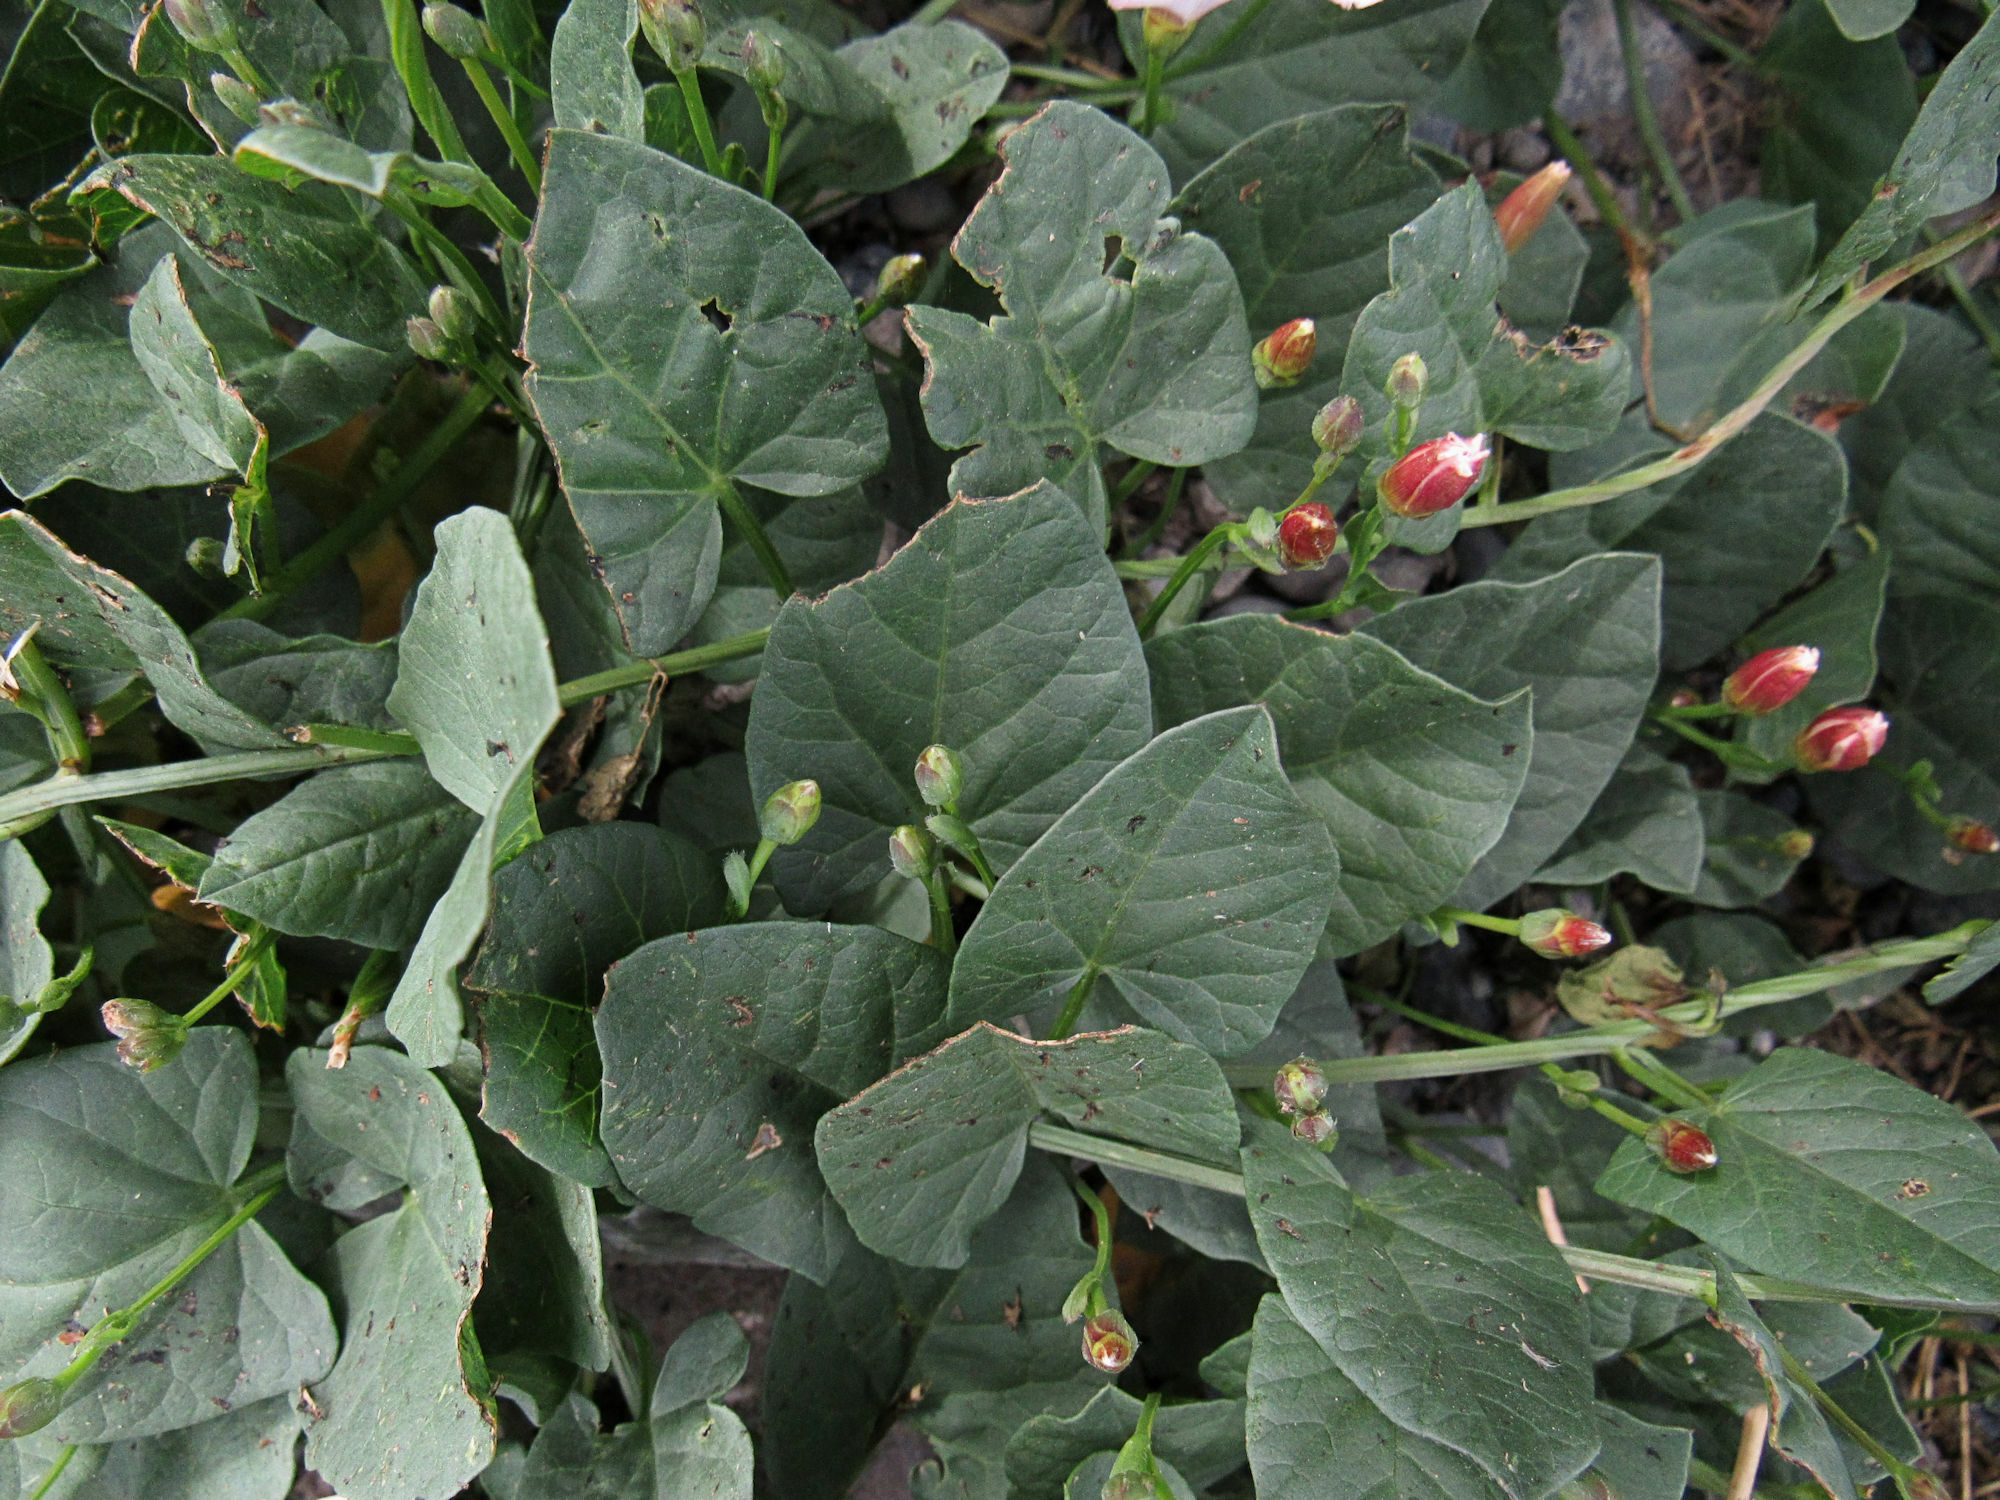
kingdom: Plantae
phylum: Tracheophyta
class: Magnoliopsida
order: Solanales
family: Convolvulaceae
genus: Convolvulus
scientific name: Convolvulus arvensis
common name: Field bindweed
